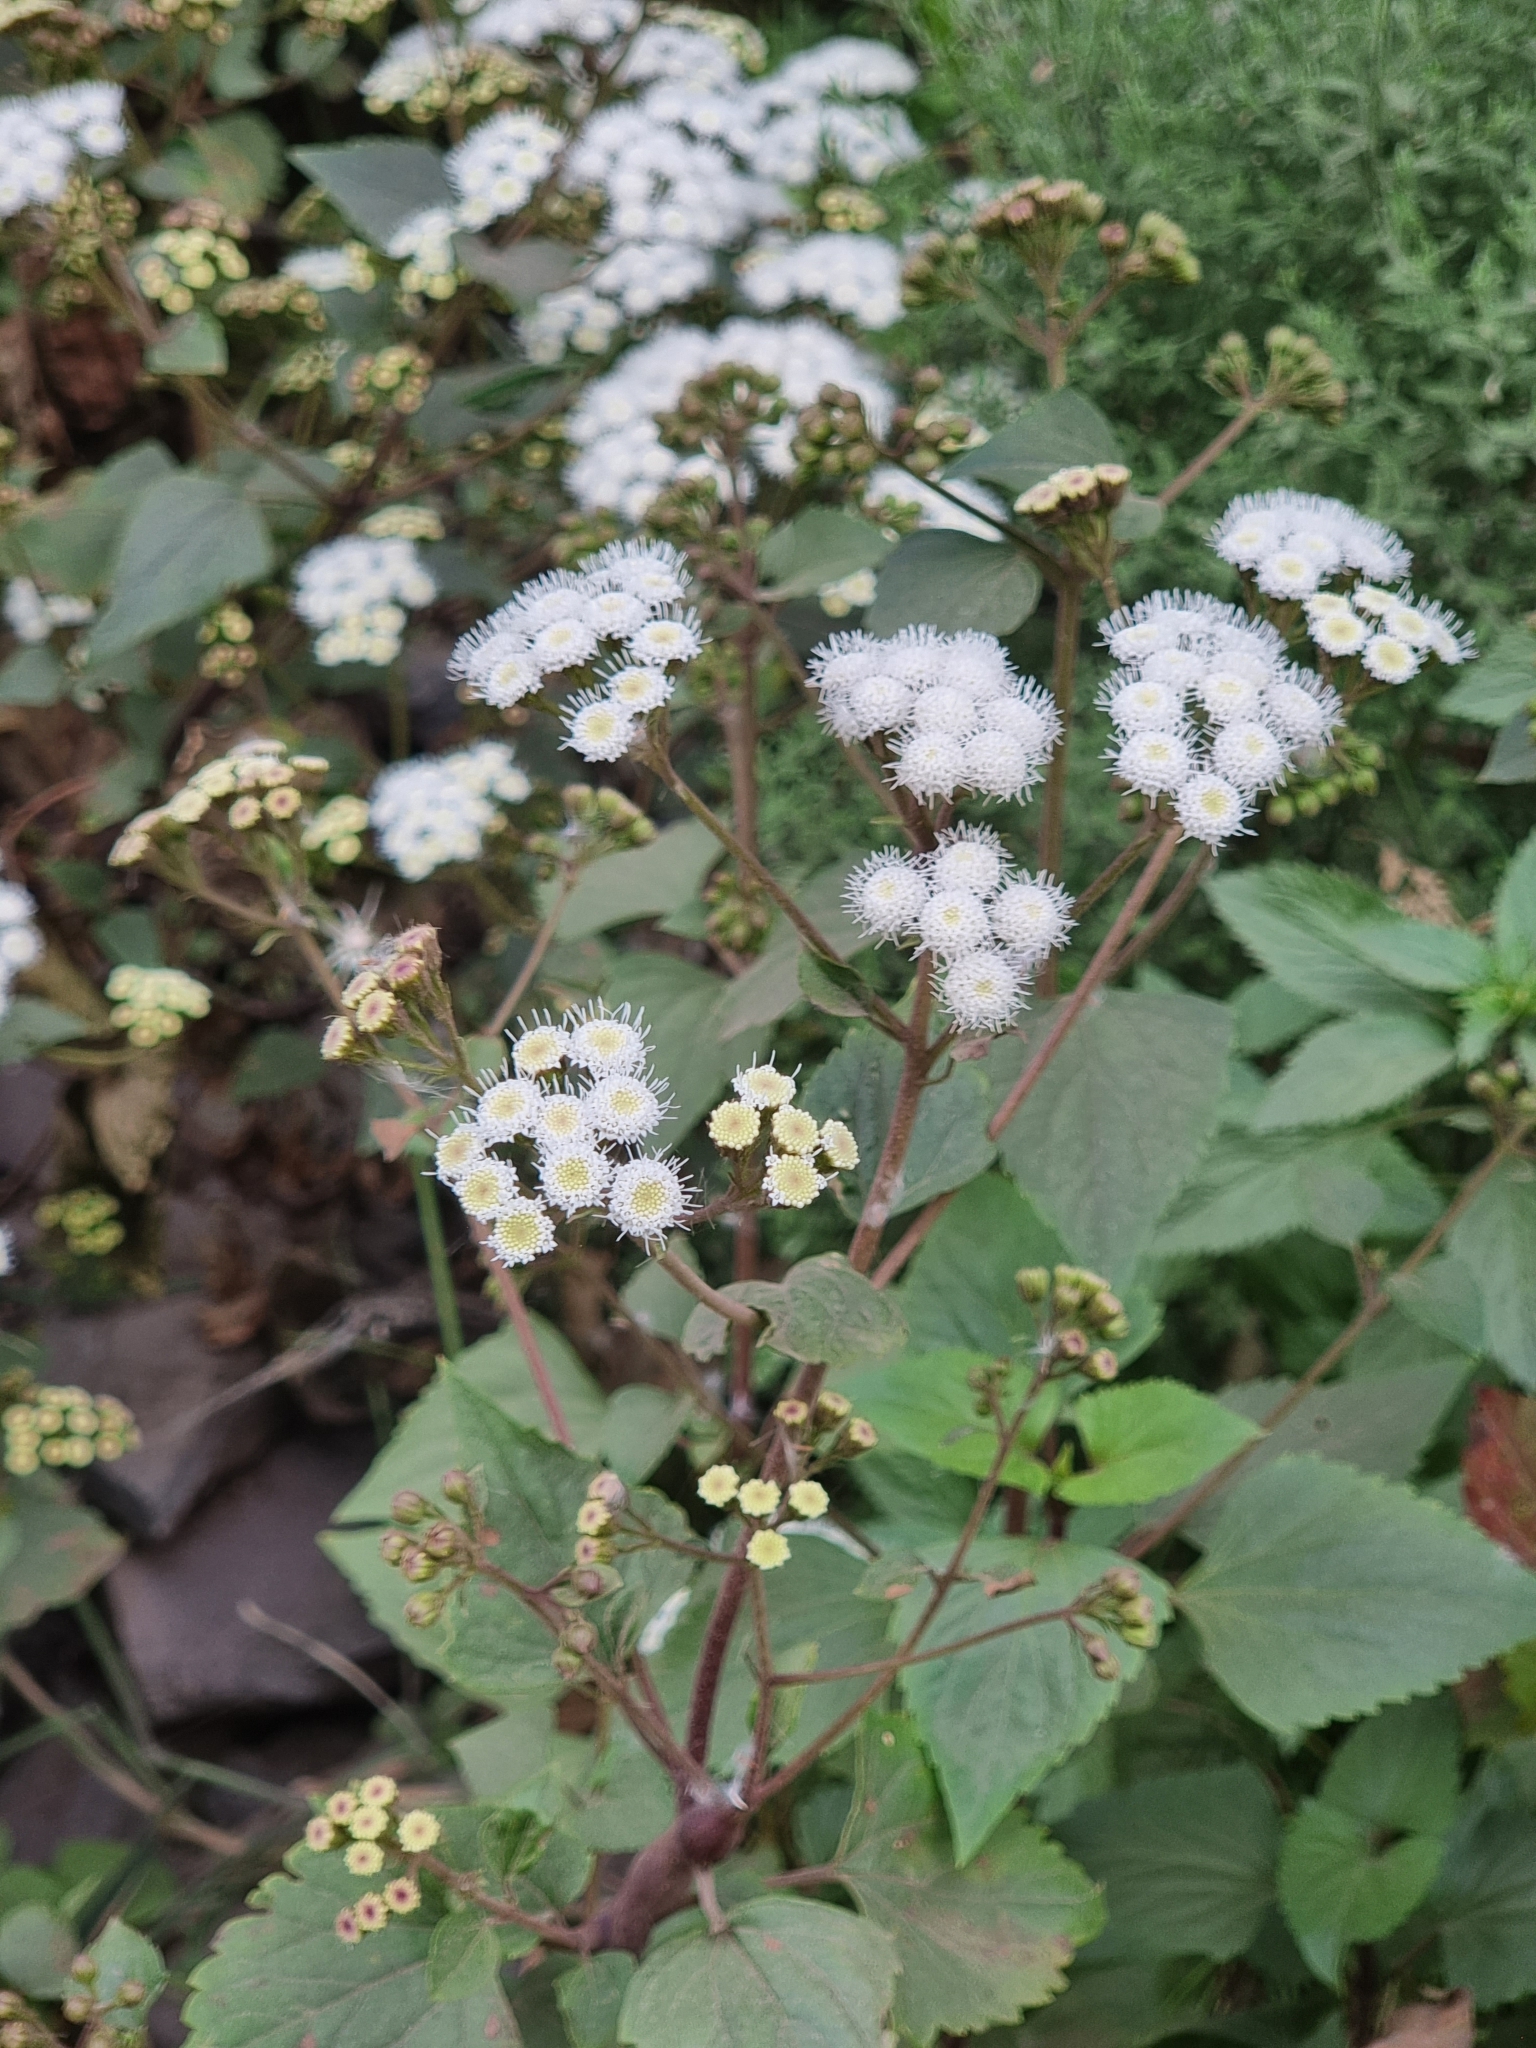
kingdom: Plantae
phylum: Tracheophyta
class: Magnoliopsida
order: Asterales
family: Asteraceae
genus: Ageratina
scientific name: Ageratina adenophora
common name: Sticky snakeroot
